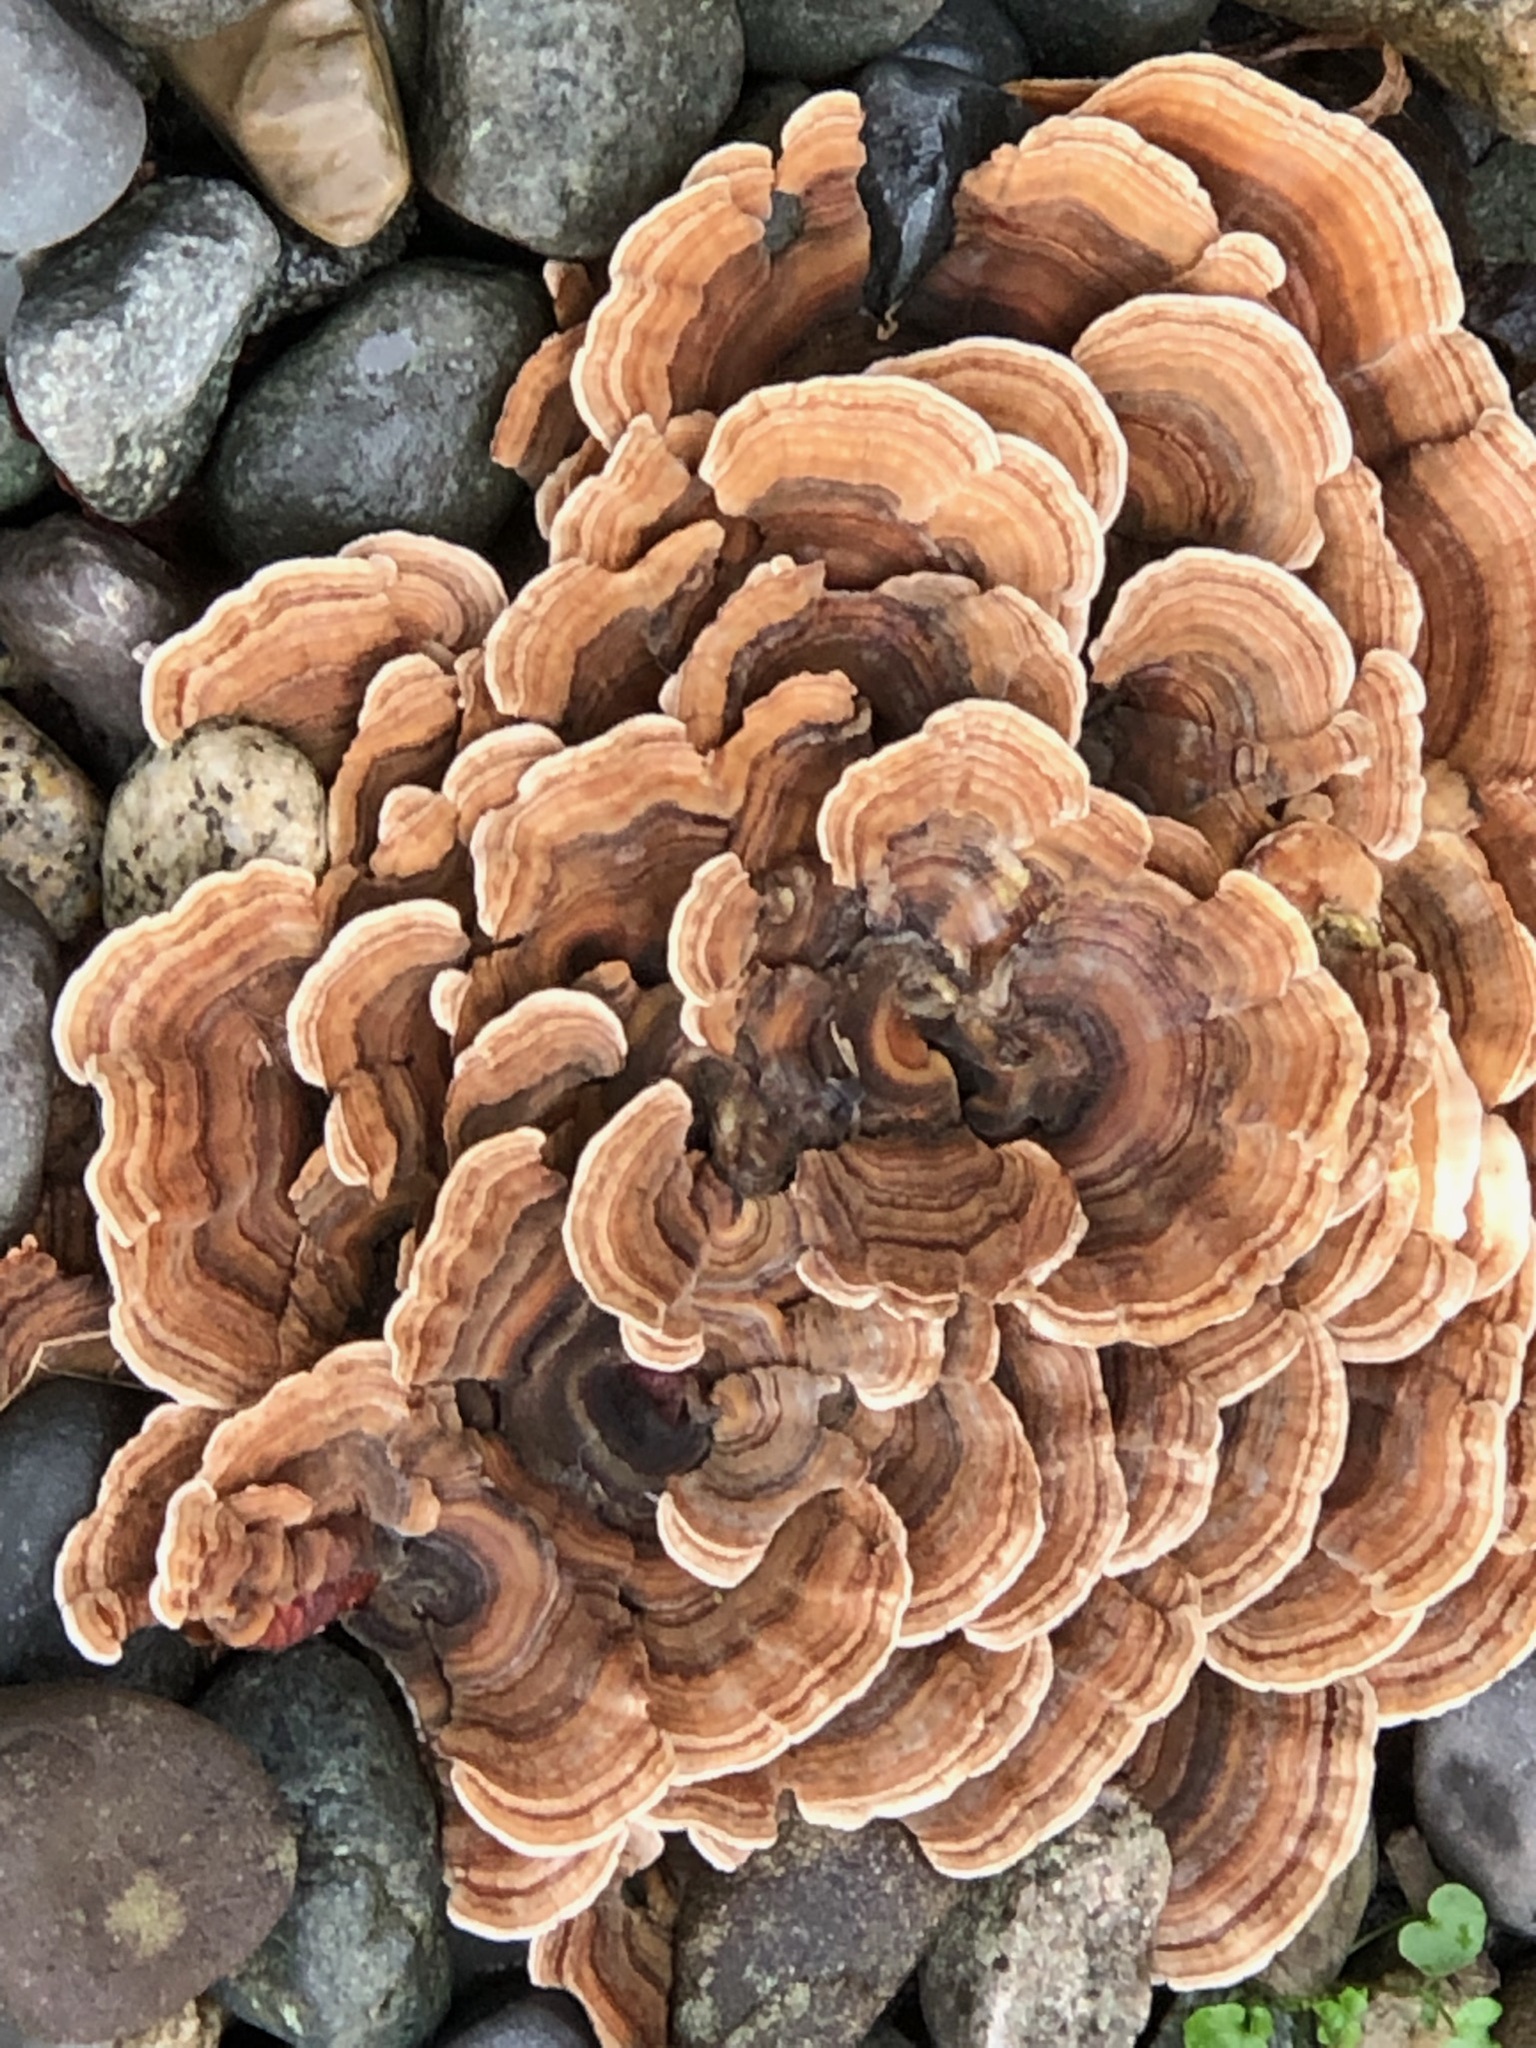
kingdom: Fungi
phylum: Basidiomycota
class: Agaricomycetes
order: Polyporales
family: Polyporaceae
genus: Trametes
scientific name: Trametes versicolor
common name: Turkeytail
